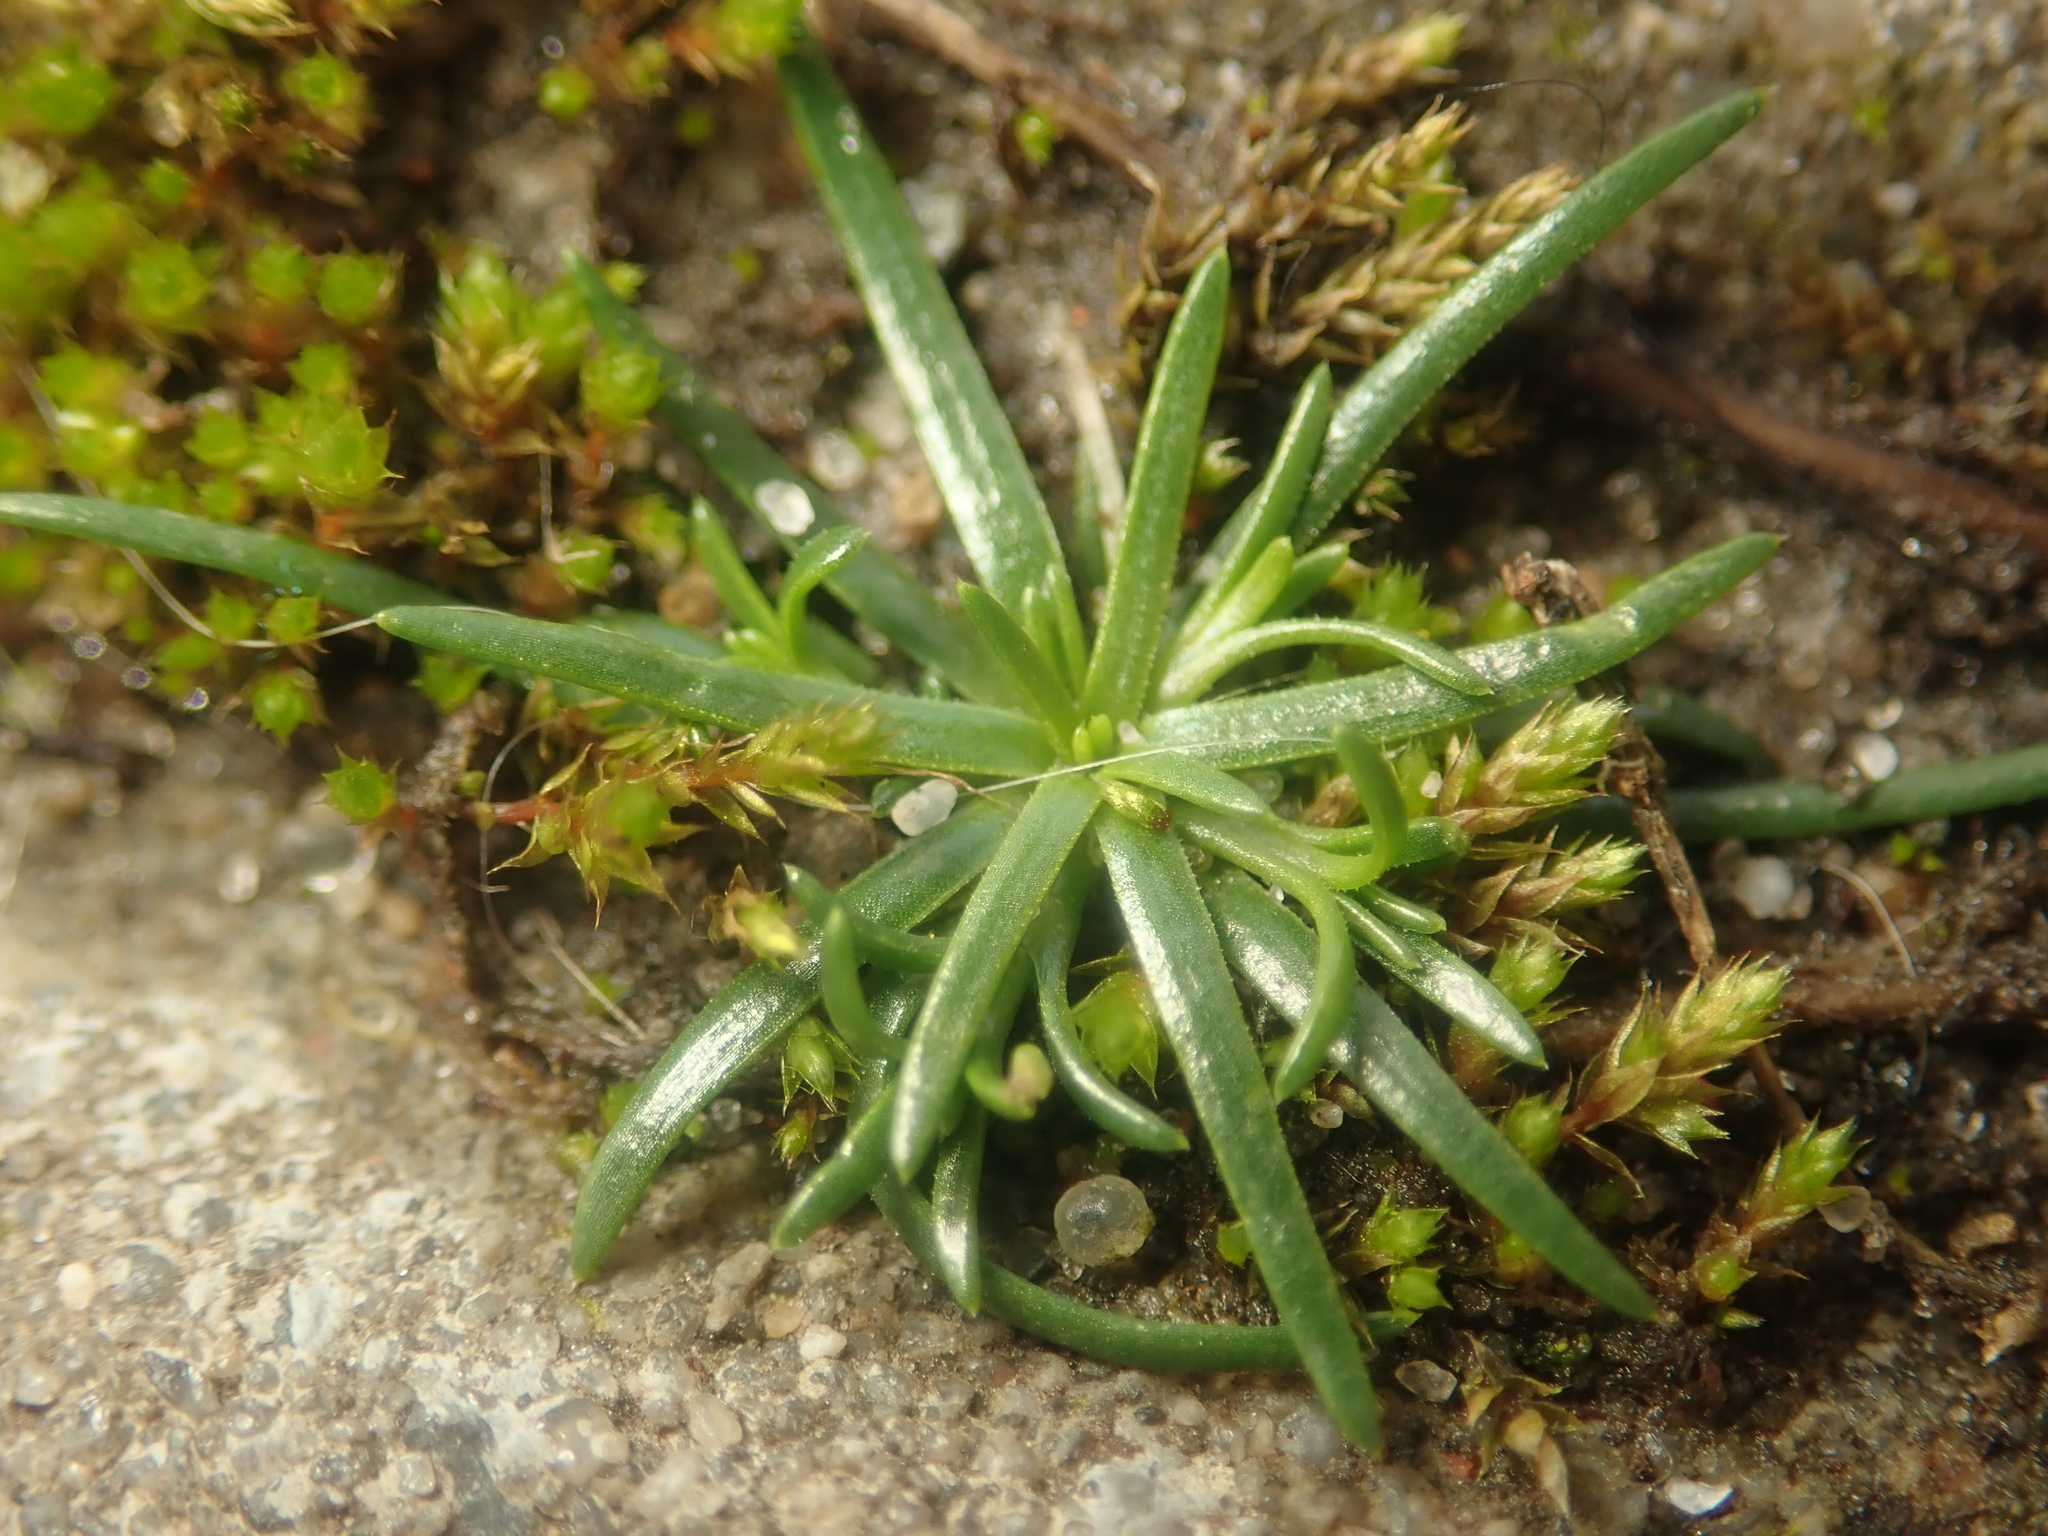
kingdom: Plantae
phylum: Tracheophyta
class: Magnoliopsida
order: Caryophyllales
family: Caryophyllaceae
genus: Sagina
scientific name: Sagina procumbens
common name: Procumbent pearlwort
